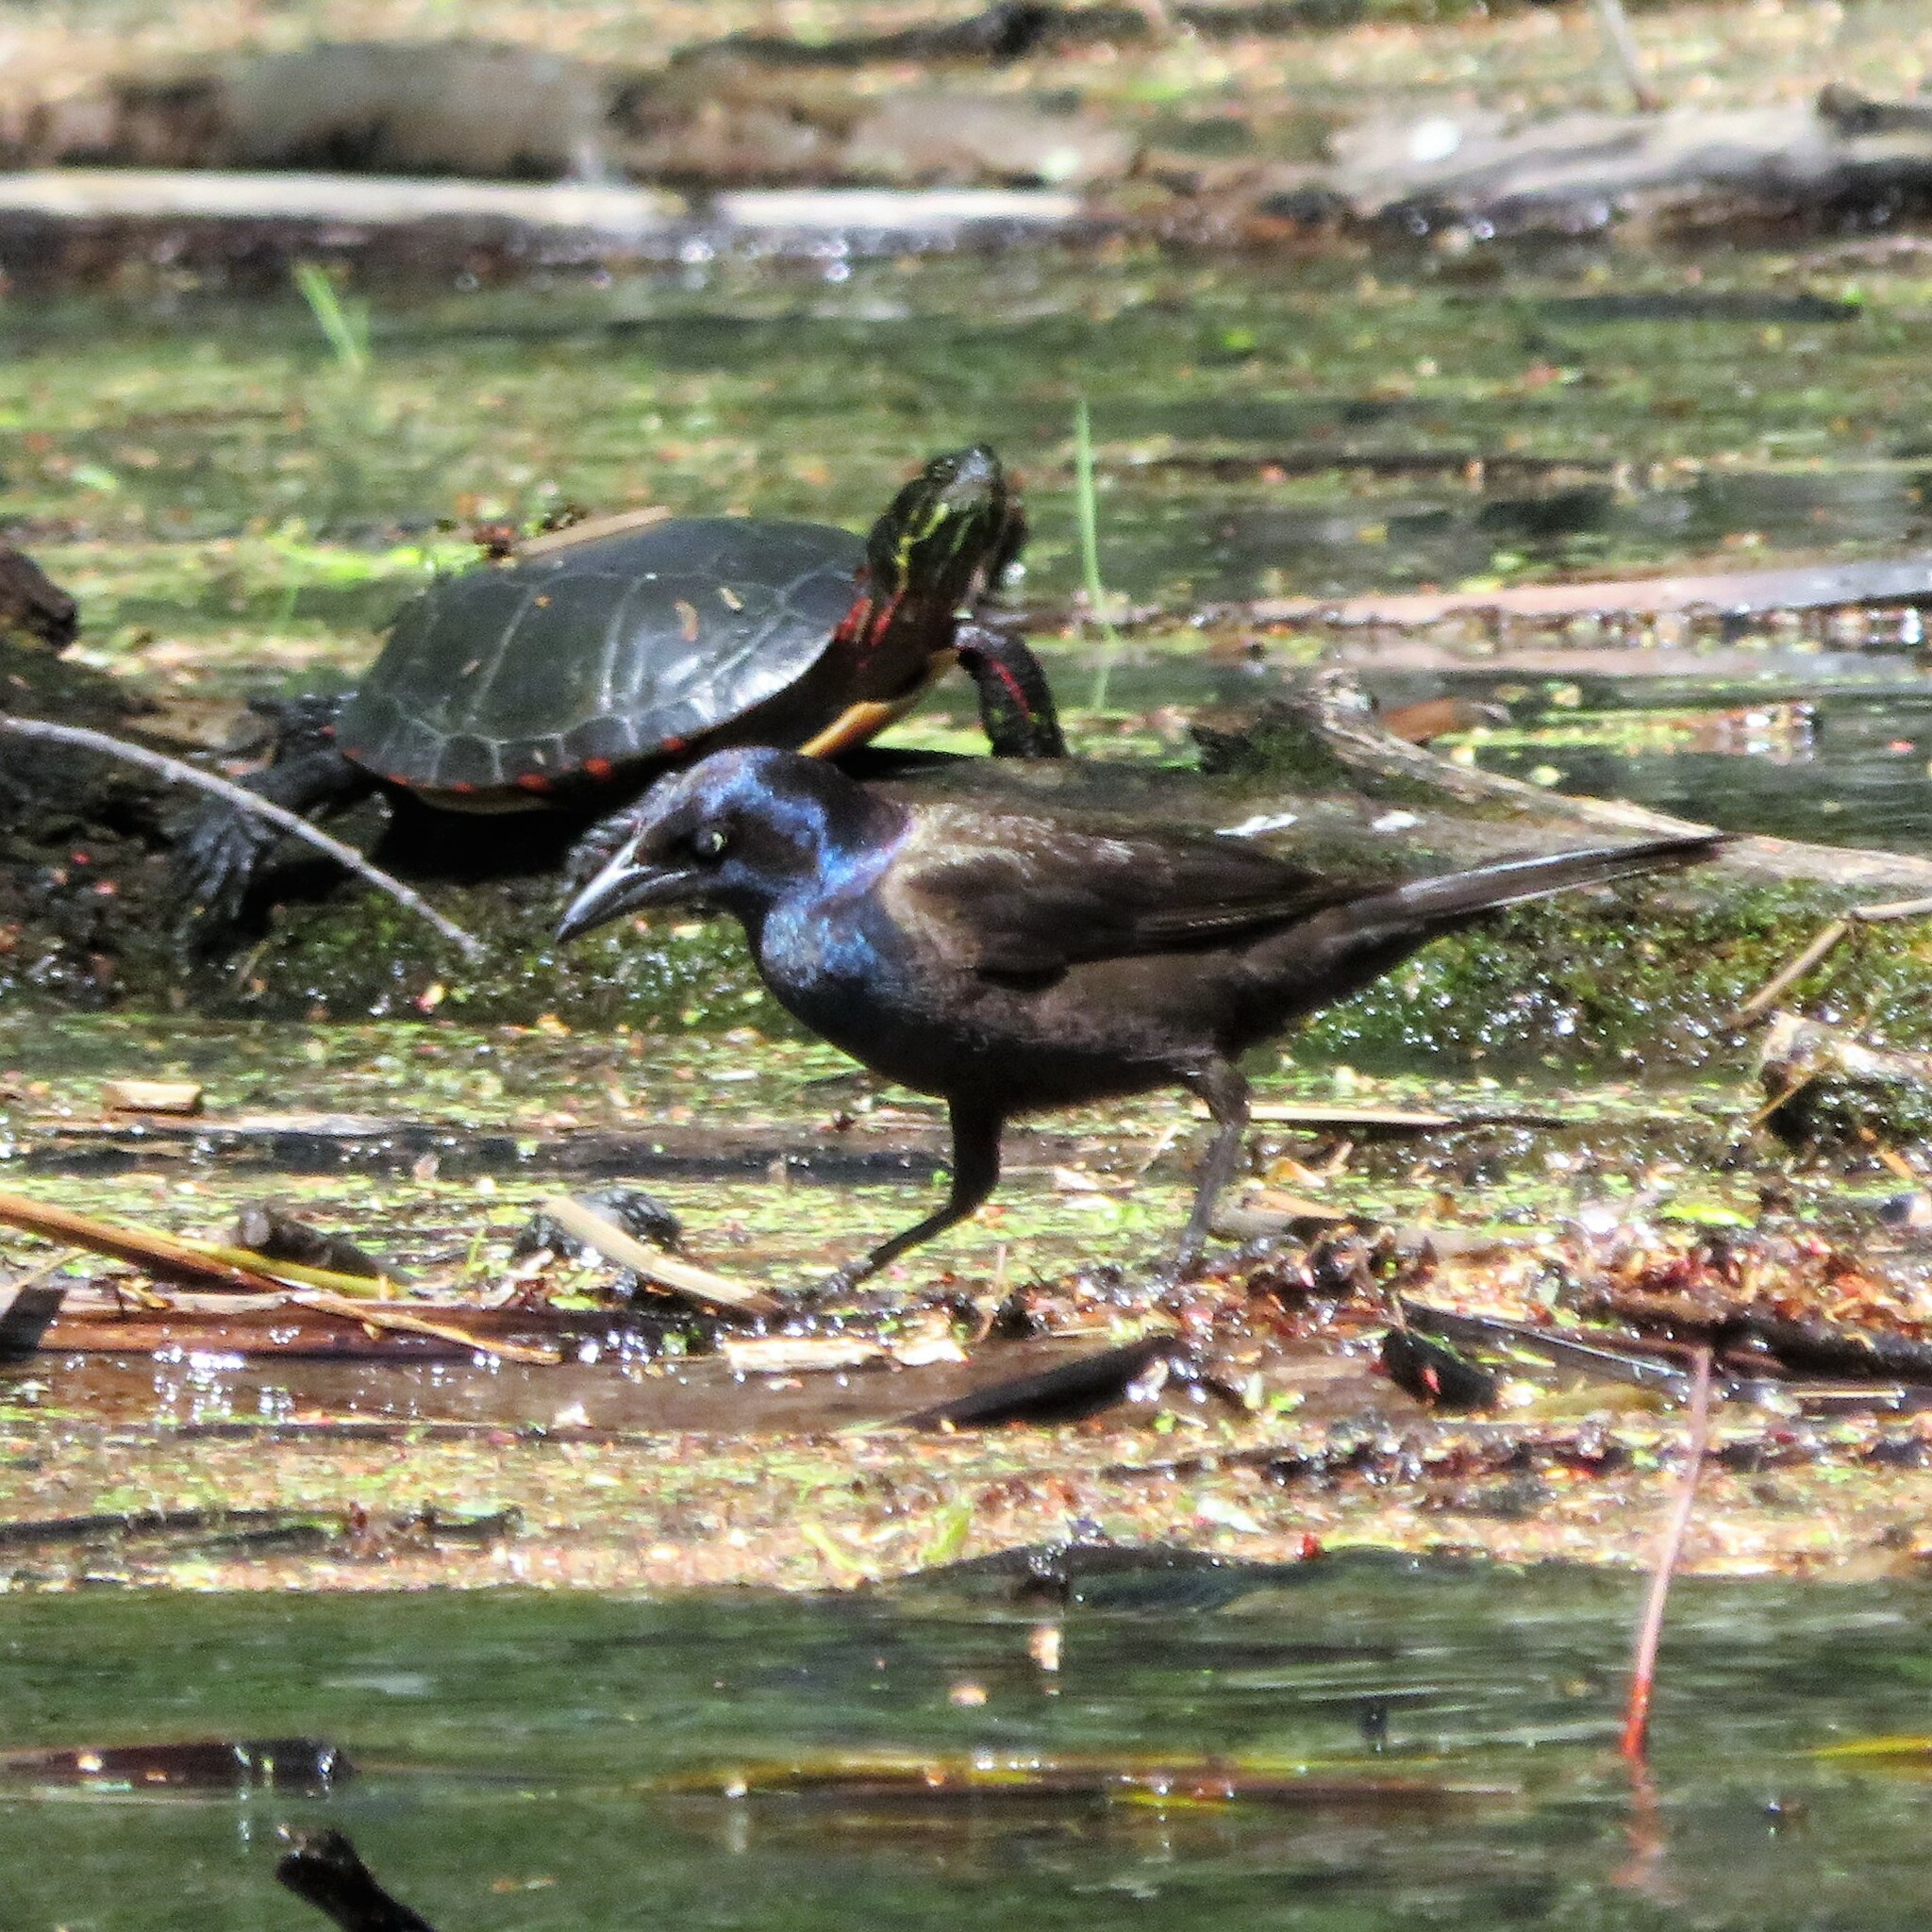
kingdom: Animalia
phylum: Chordata
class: Testudines
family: Emydidae
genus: Chrysemys
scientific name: Chrysemys picta
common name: Painted turtle
